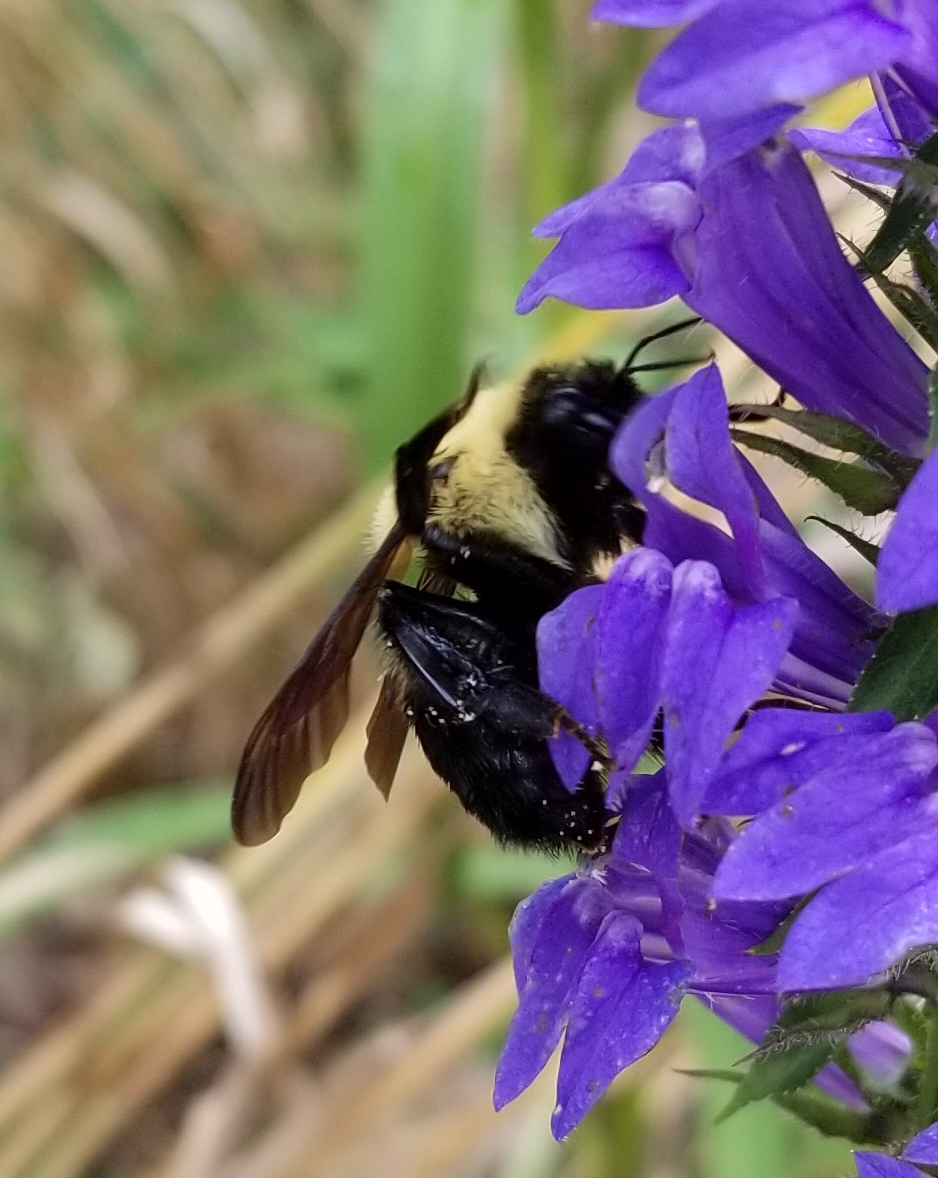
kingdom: Animalia
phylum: Arthropoda
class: Insecta
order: Hymenoptera
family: Apidae
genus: Bombus
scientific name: Bombus griseocollis
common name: Brown-belted bumble bee
